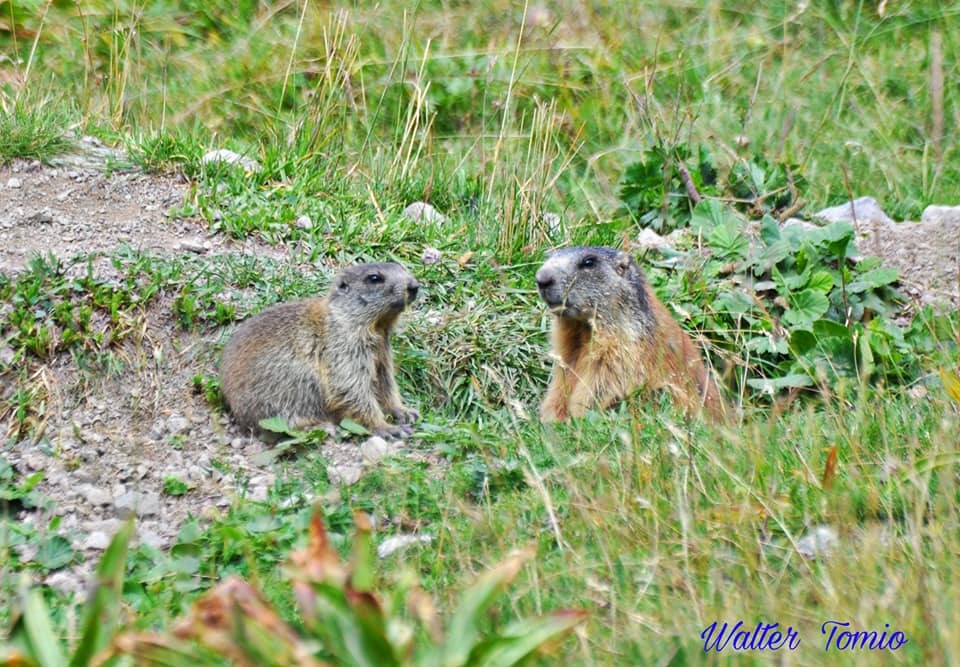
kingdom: Animalia
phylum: Chordata
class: Mammalia
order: Rodentia
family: Sciuridae
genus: Marmota
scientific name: Marmota marmota
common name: Alpine marmot
